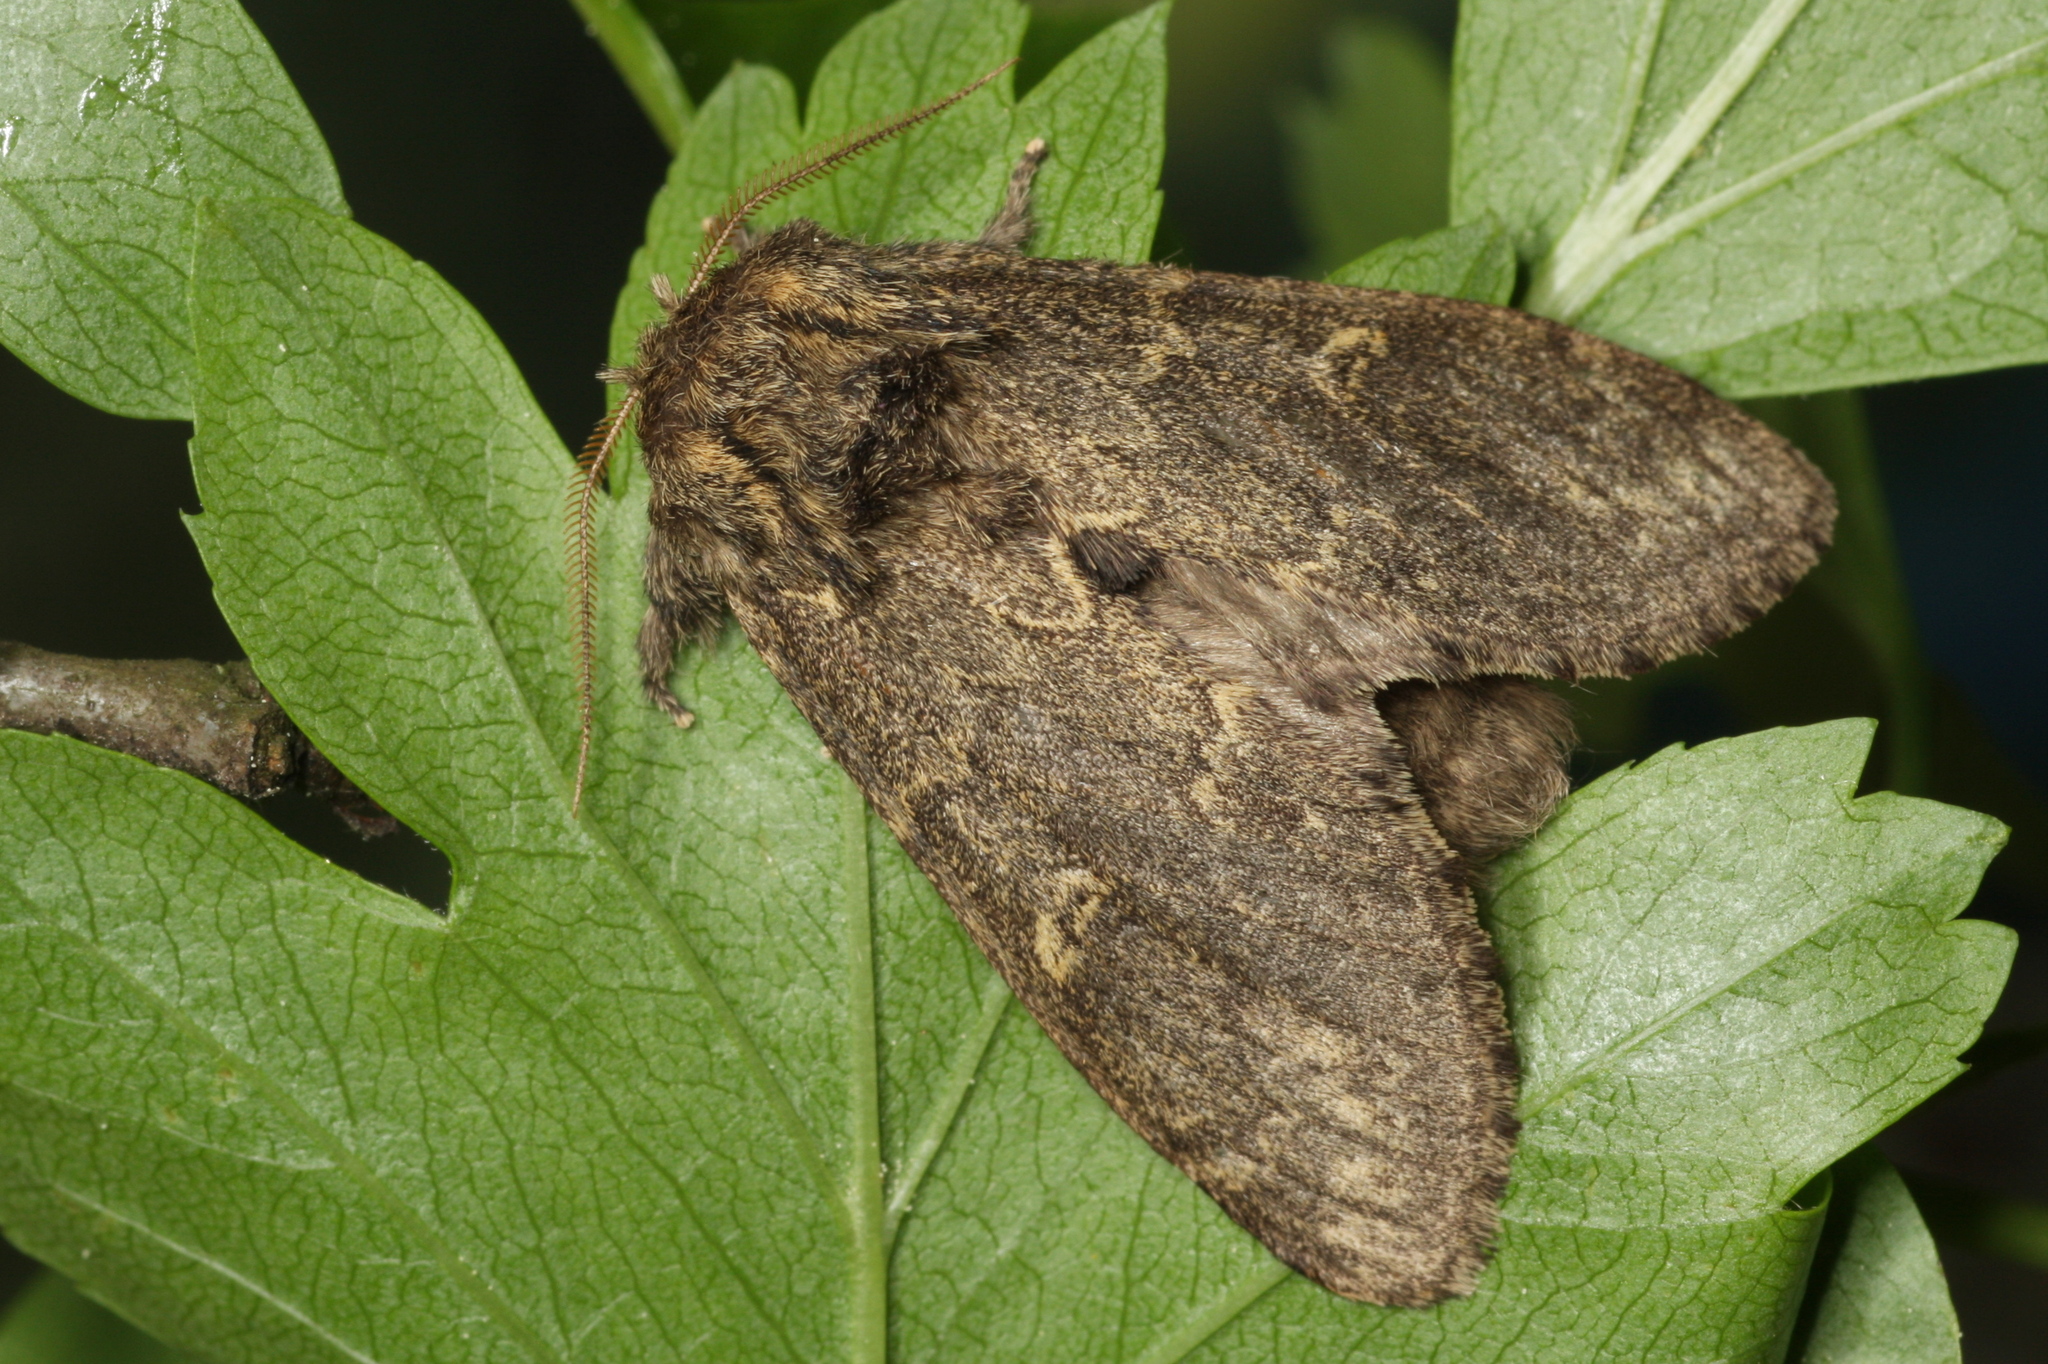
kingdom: Animalia
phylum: Arthropoda
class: Insecta
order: Lepidoptera
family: Notodontidae
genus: Notodonta
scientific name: Notodonta torva
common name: Large dark prominent
